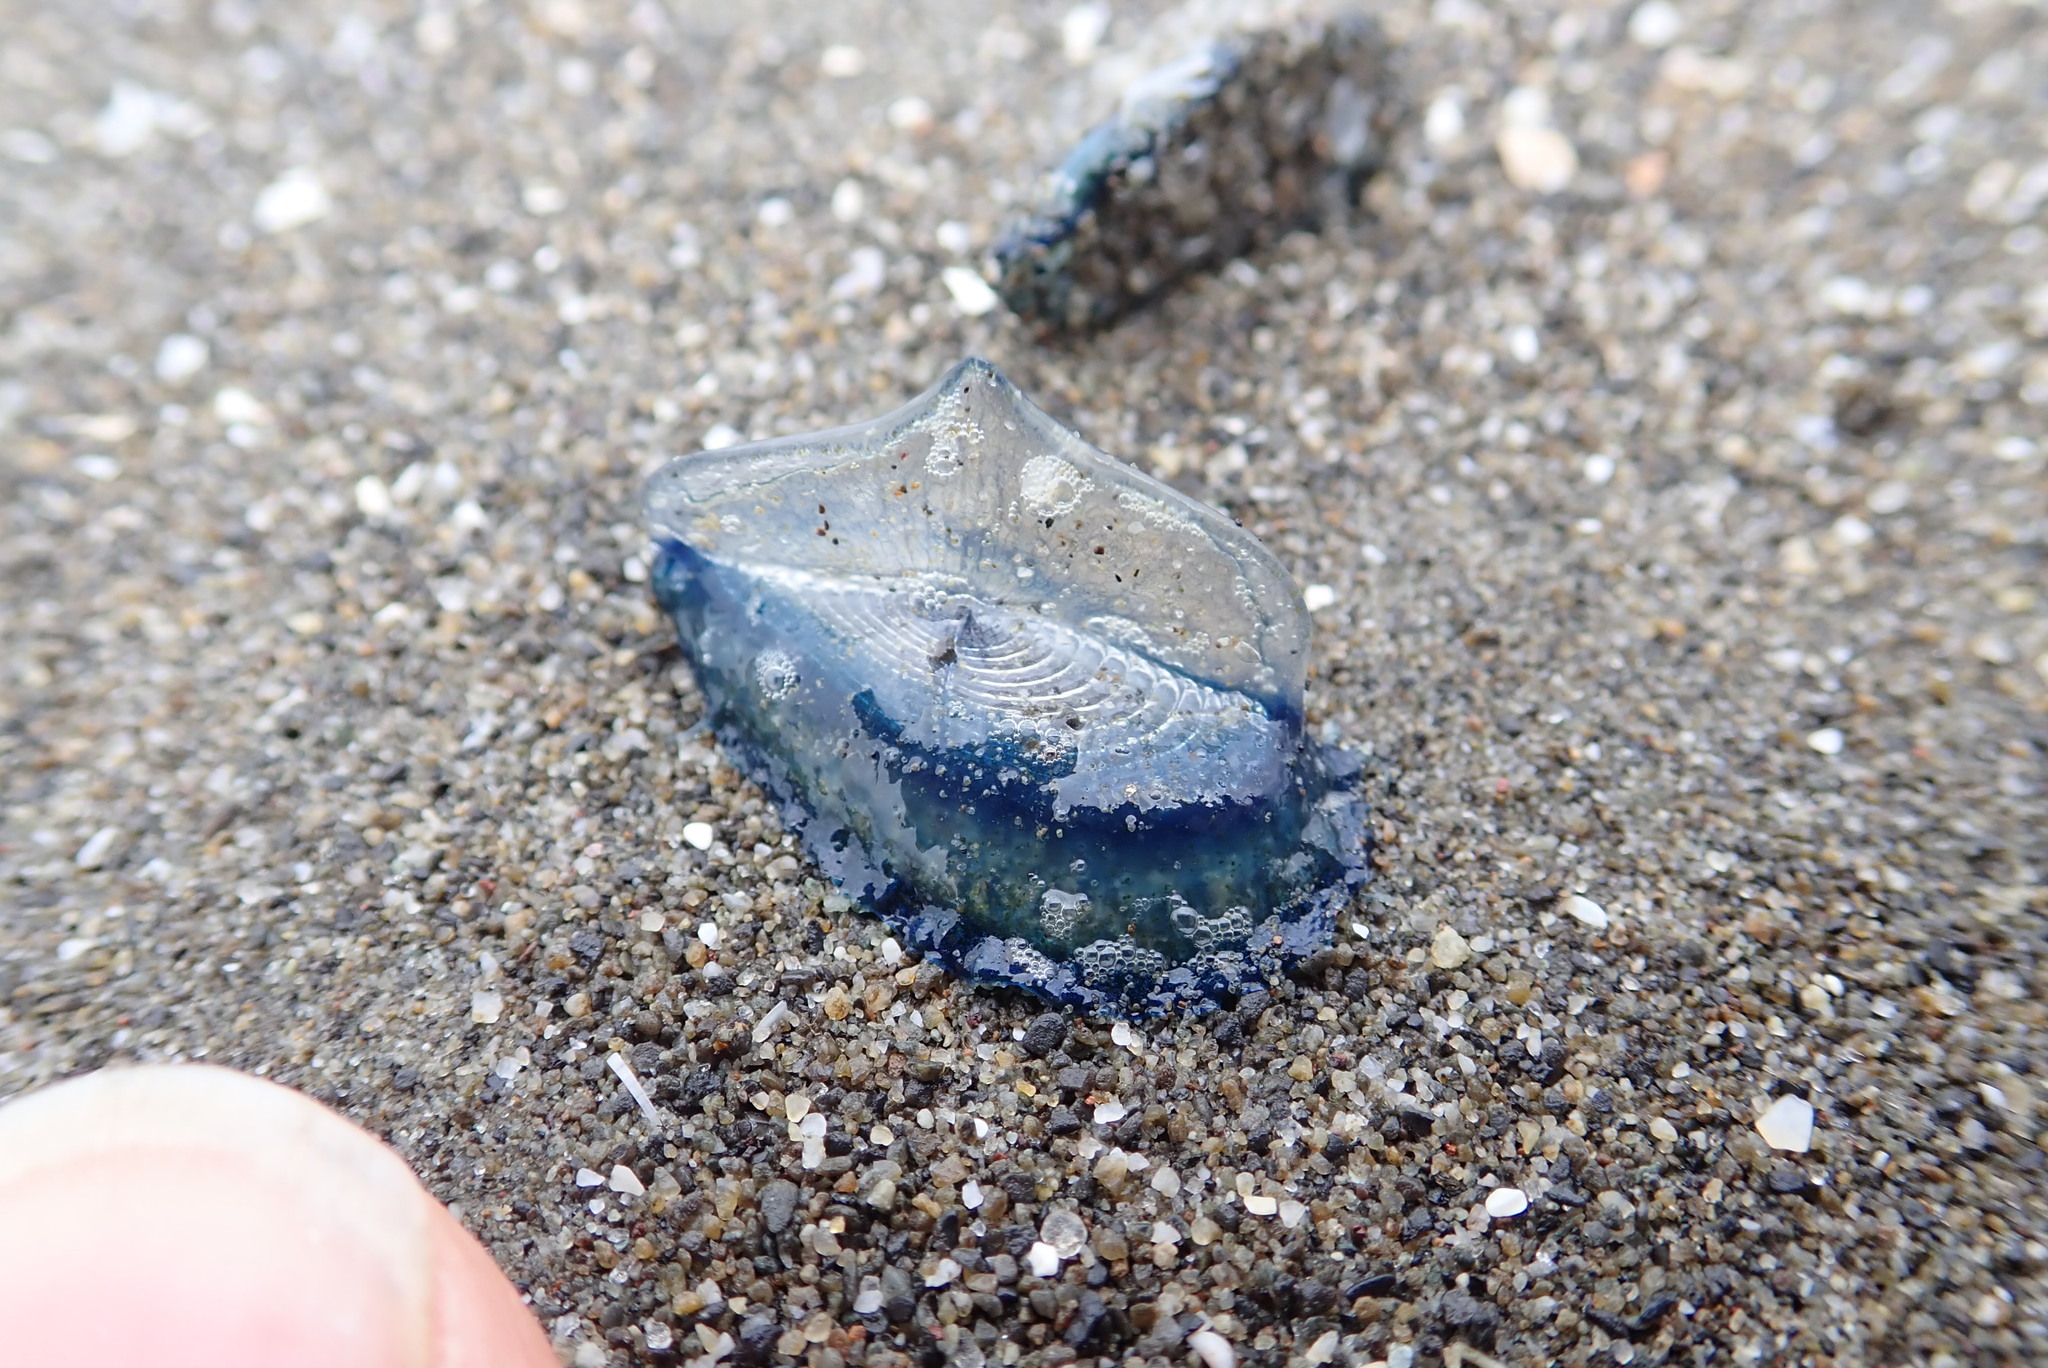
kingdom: Animalia
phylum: Cnidaria
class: Hydrozoa
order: Anthoathecata
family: Porpitidae
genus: Velella
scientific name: Velella velella
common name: By-the-wind-sailor
